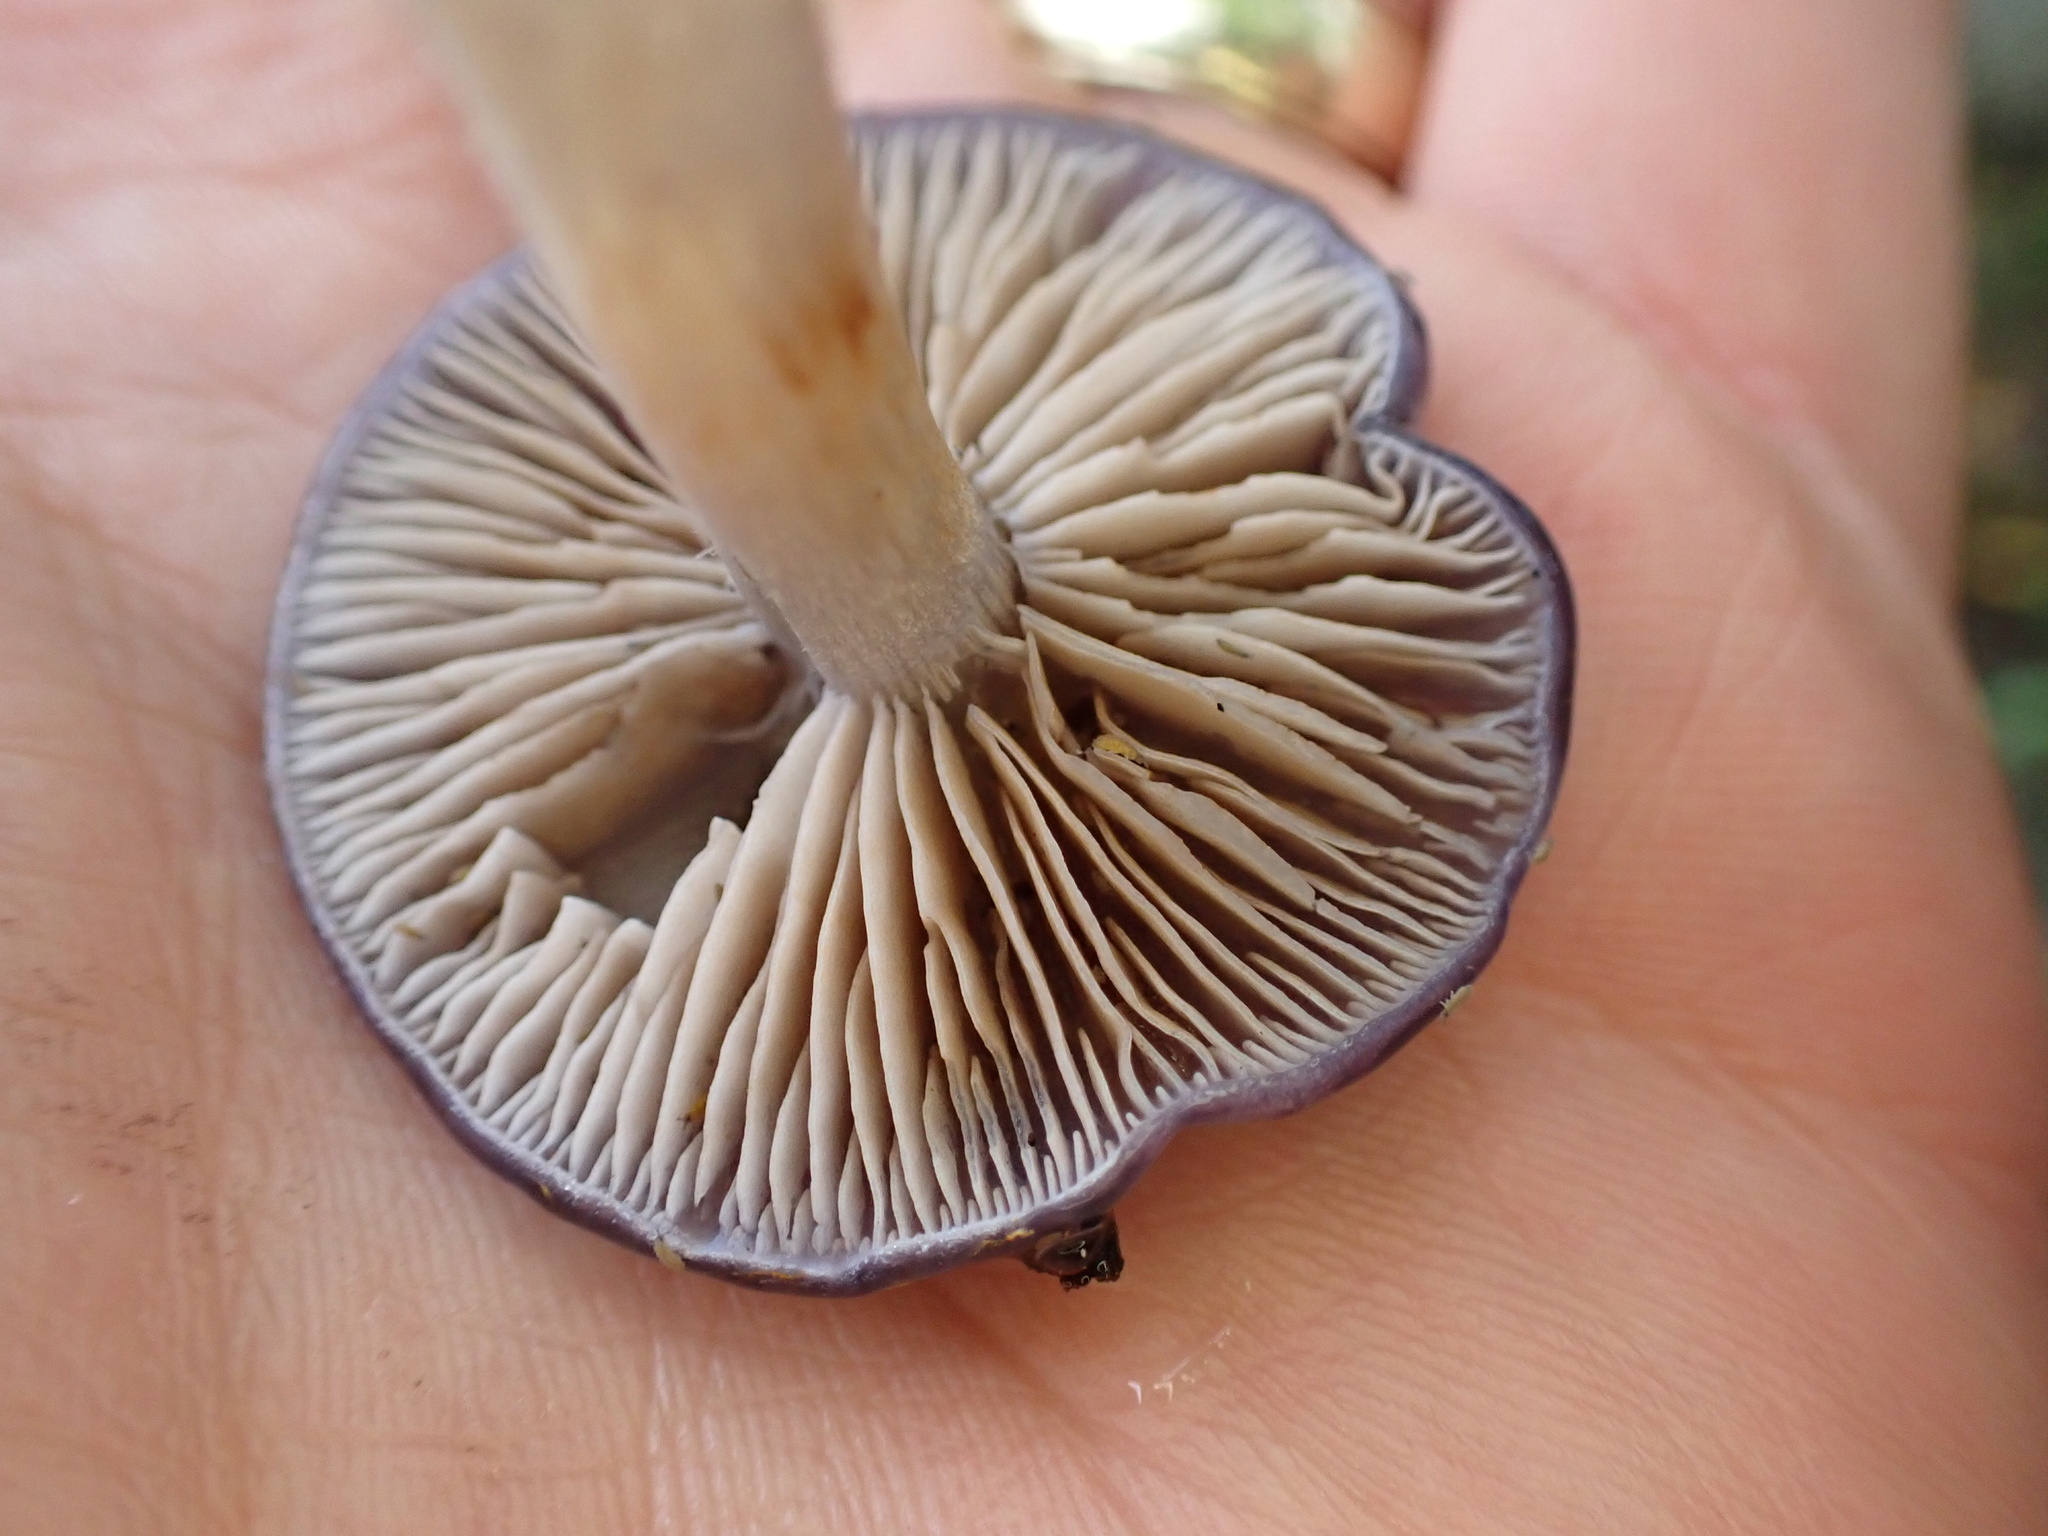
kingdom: Fungi
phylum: Basidiomycota
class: Agaricomycetes
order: Agaricales
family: Cortinariaceae
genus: Cortinarius
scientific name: Cortinarius iodes
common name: Viscid violet cort
